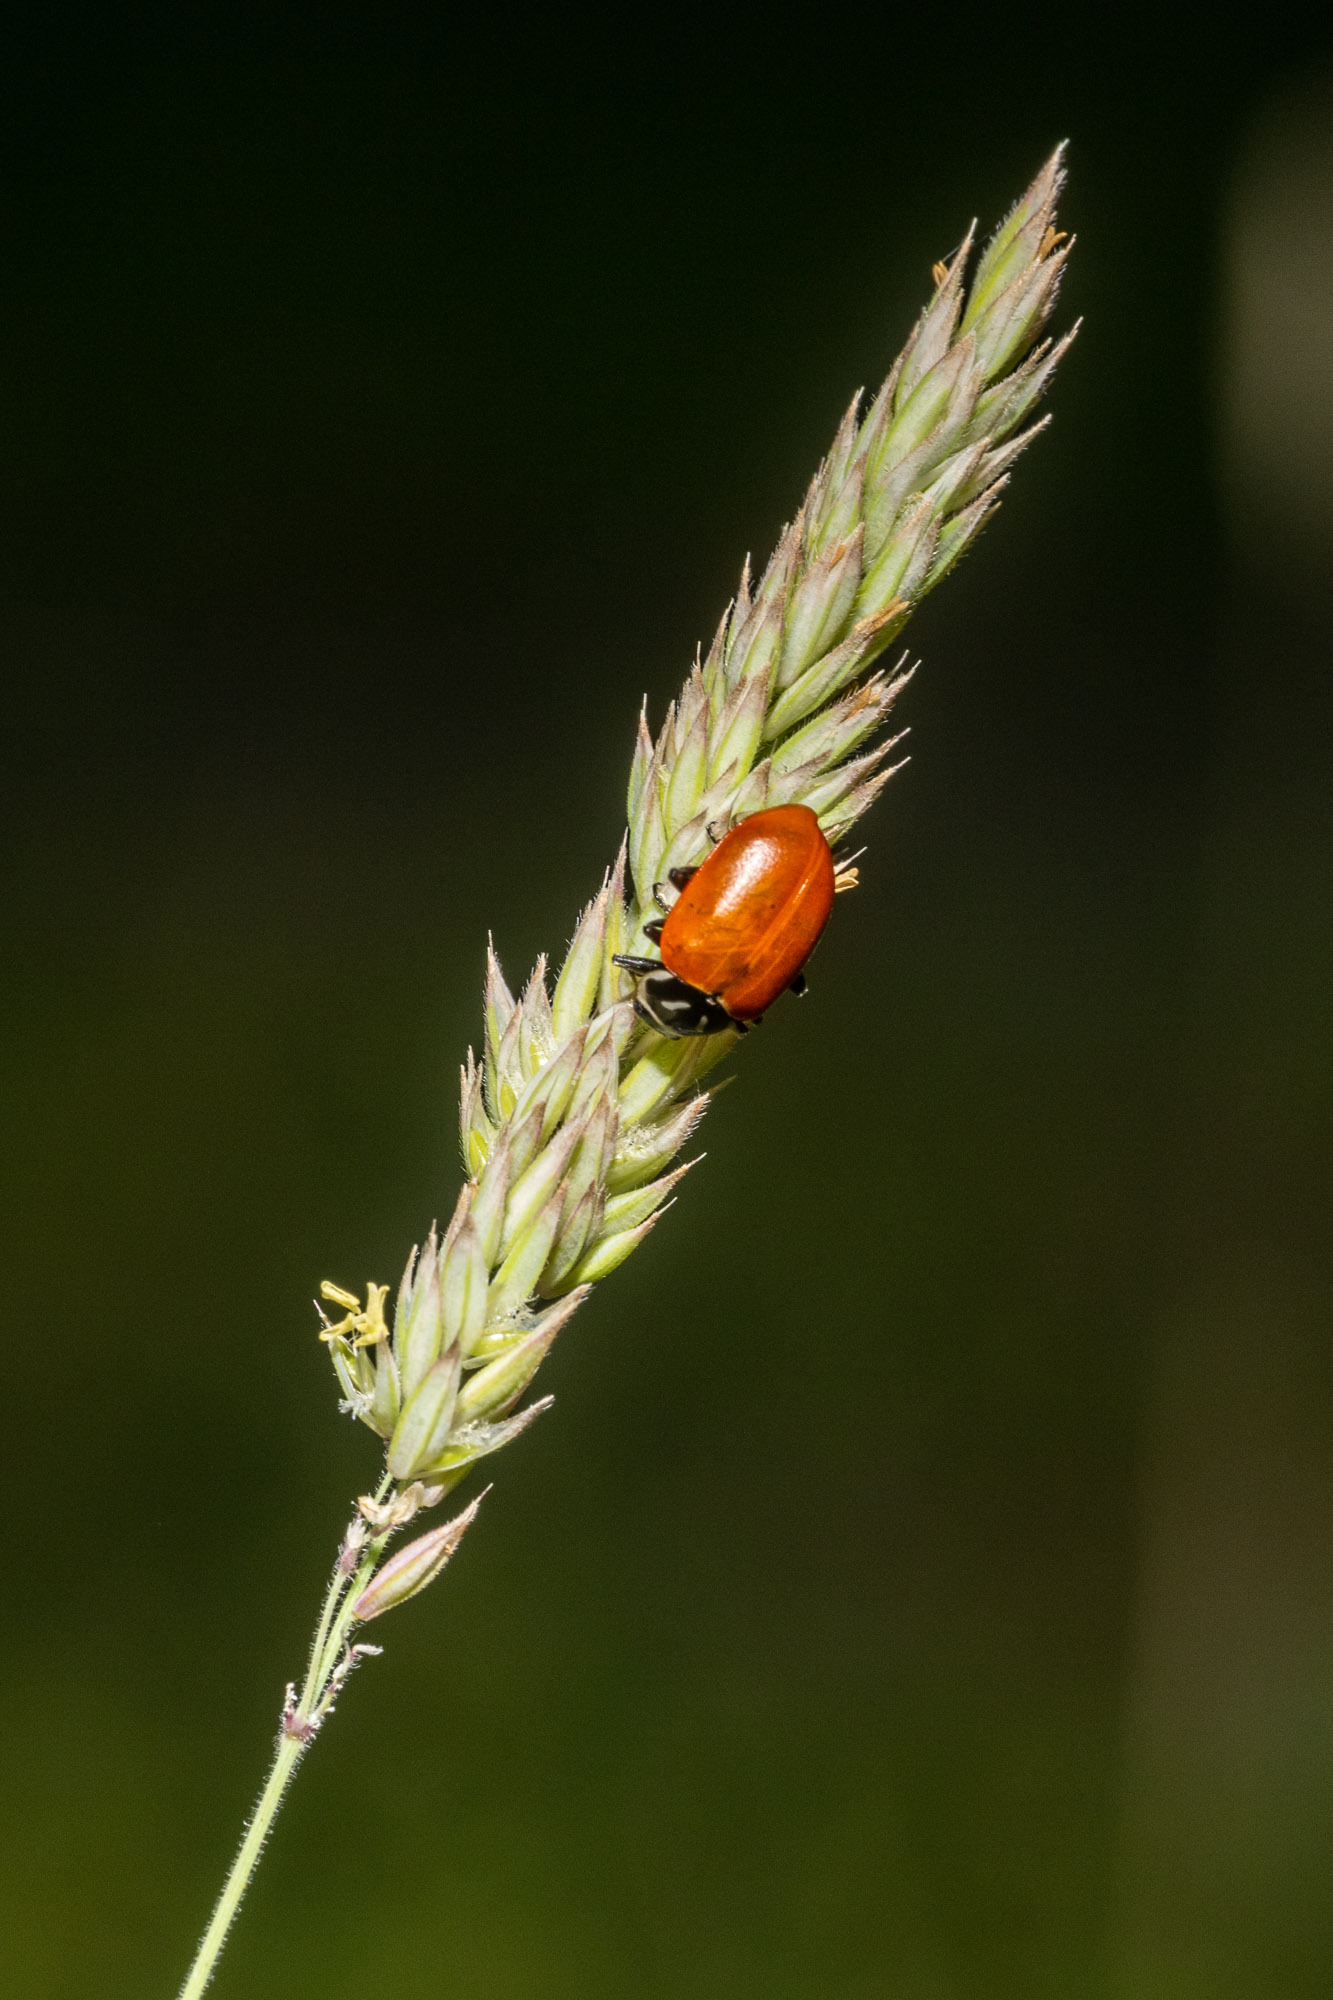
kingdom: Animalia
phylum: Arthropoda
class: Insecta
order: Coleoptera
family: Coccinellidae
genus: Hippodamia
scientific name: Hippodamia convergens
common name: Convergent lady beetle
